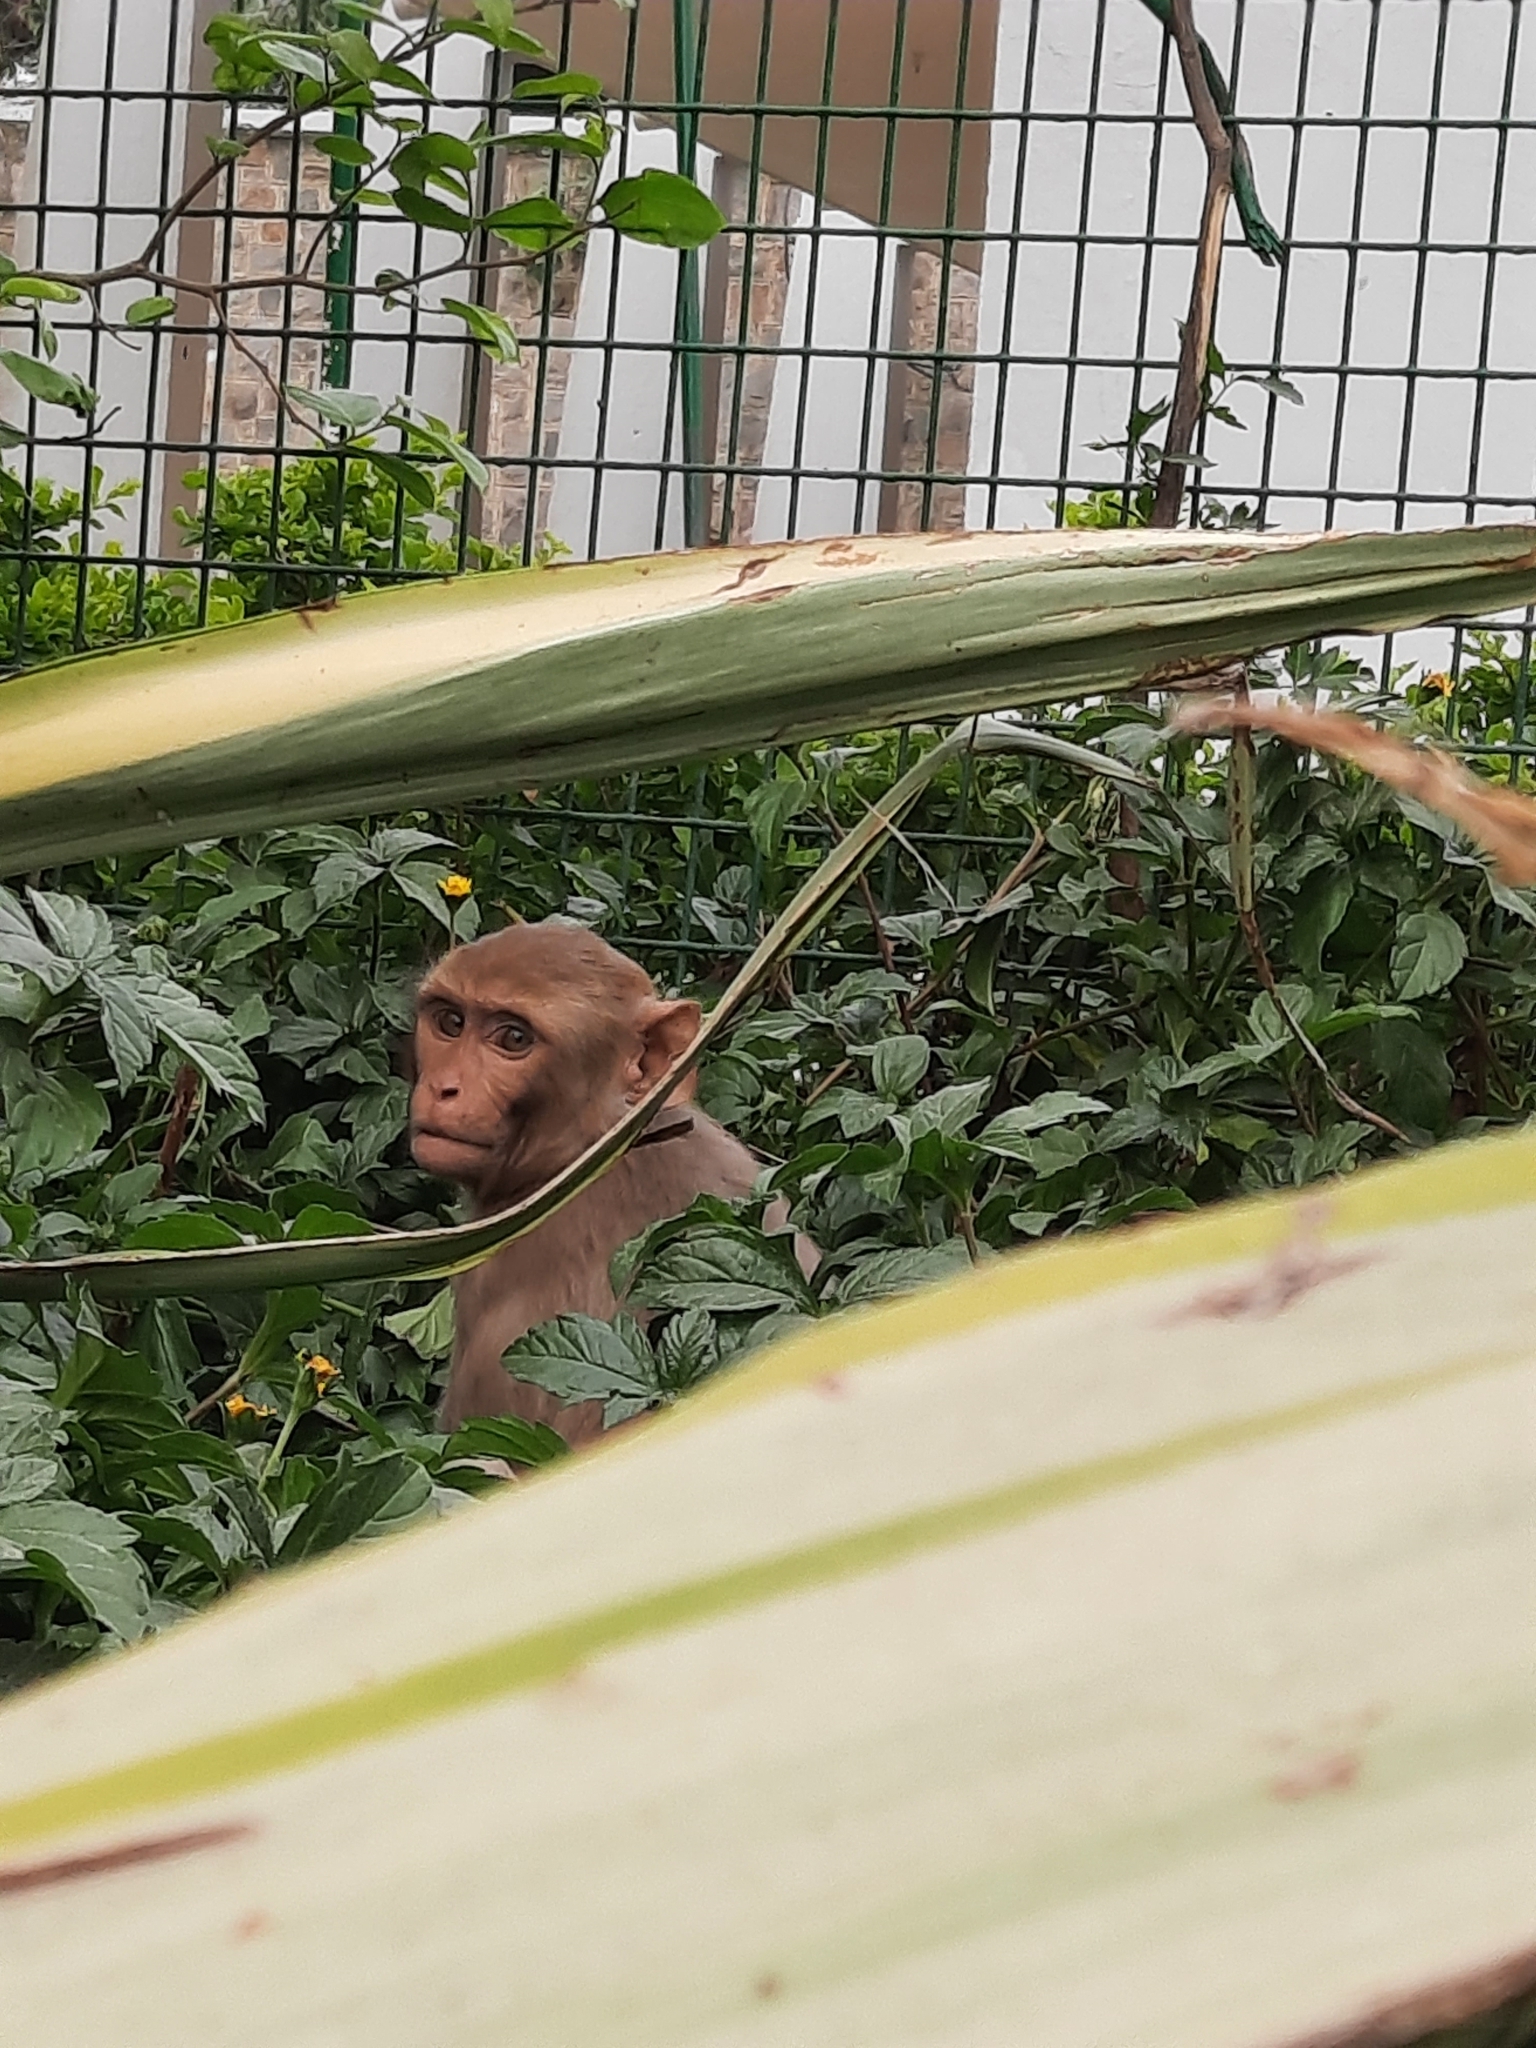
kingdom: Animalia
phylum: Chordata
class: Mammalia
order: Primates
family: Cercopithecidae
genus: Macaca
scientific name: Macaca mulatta
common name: Rhesus monkey
